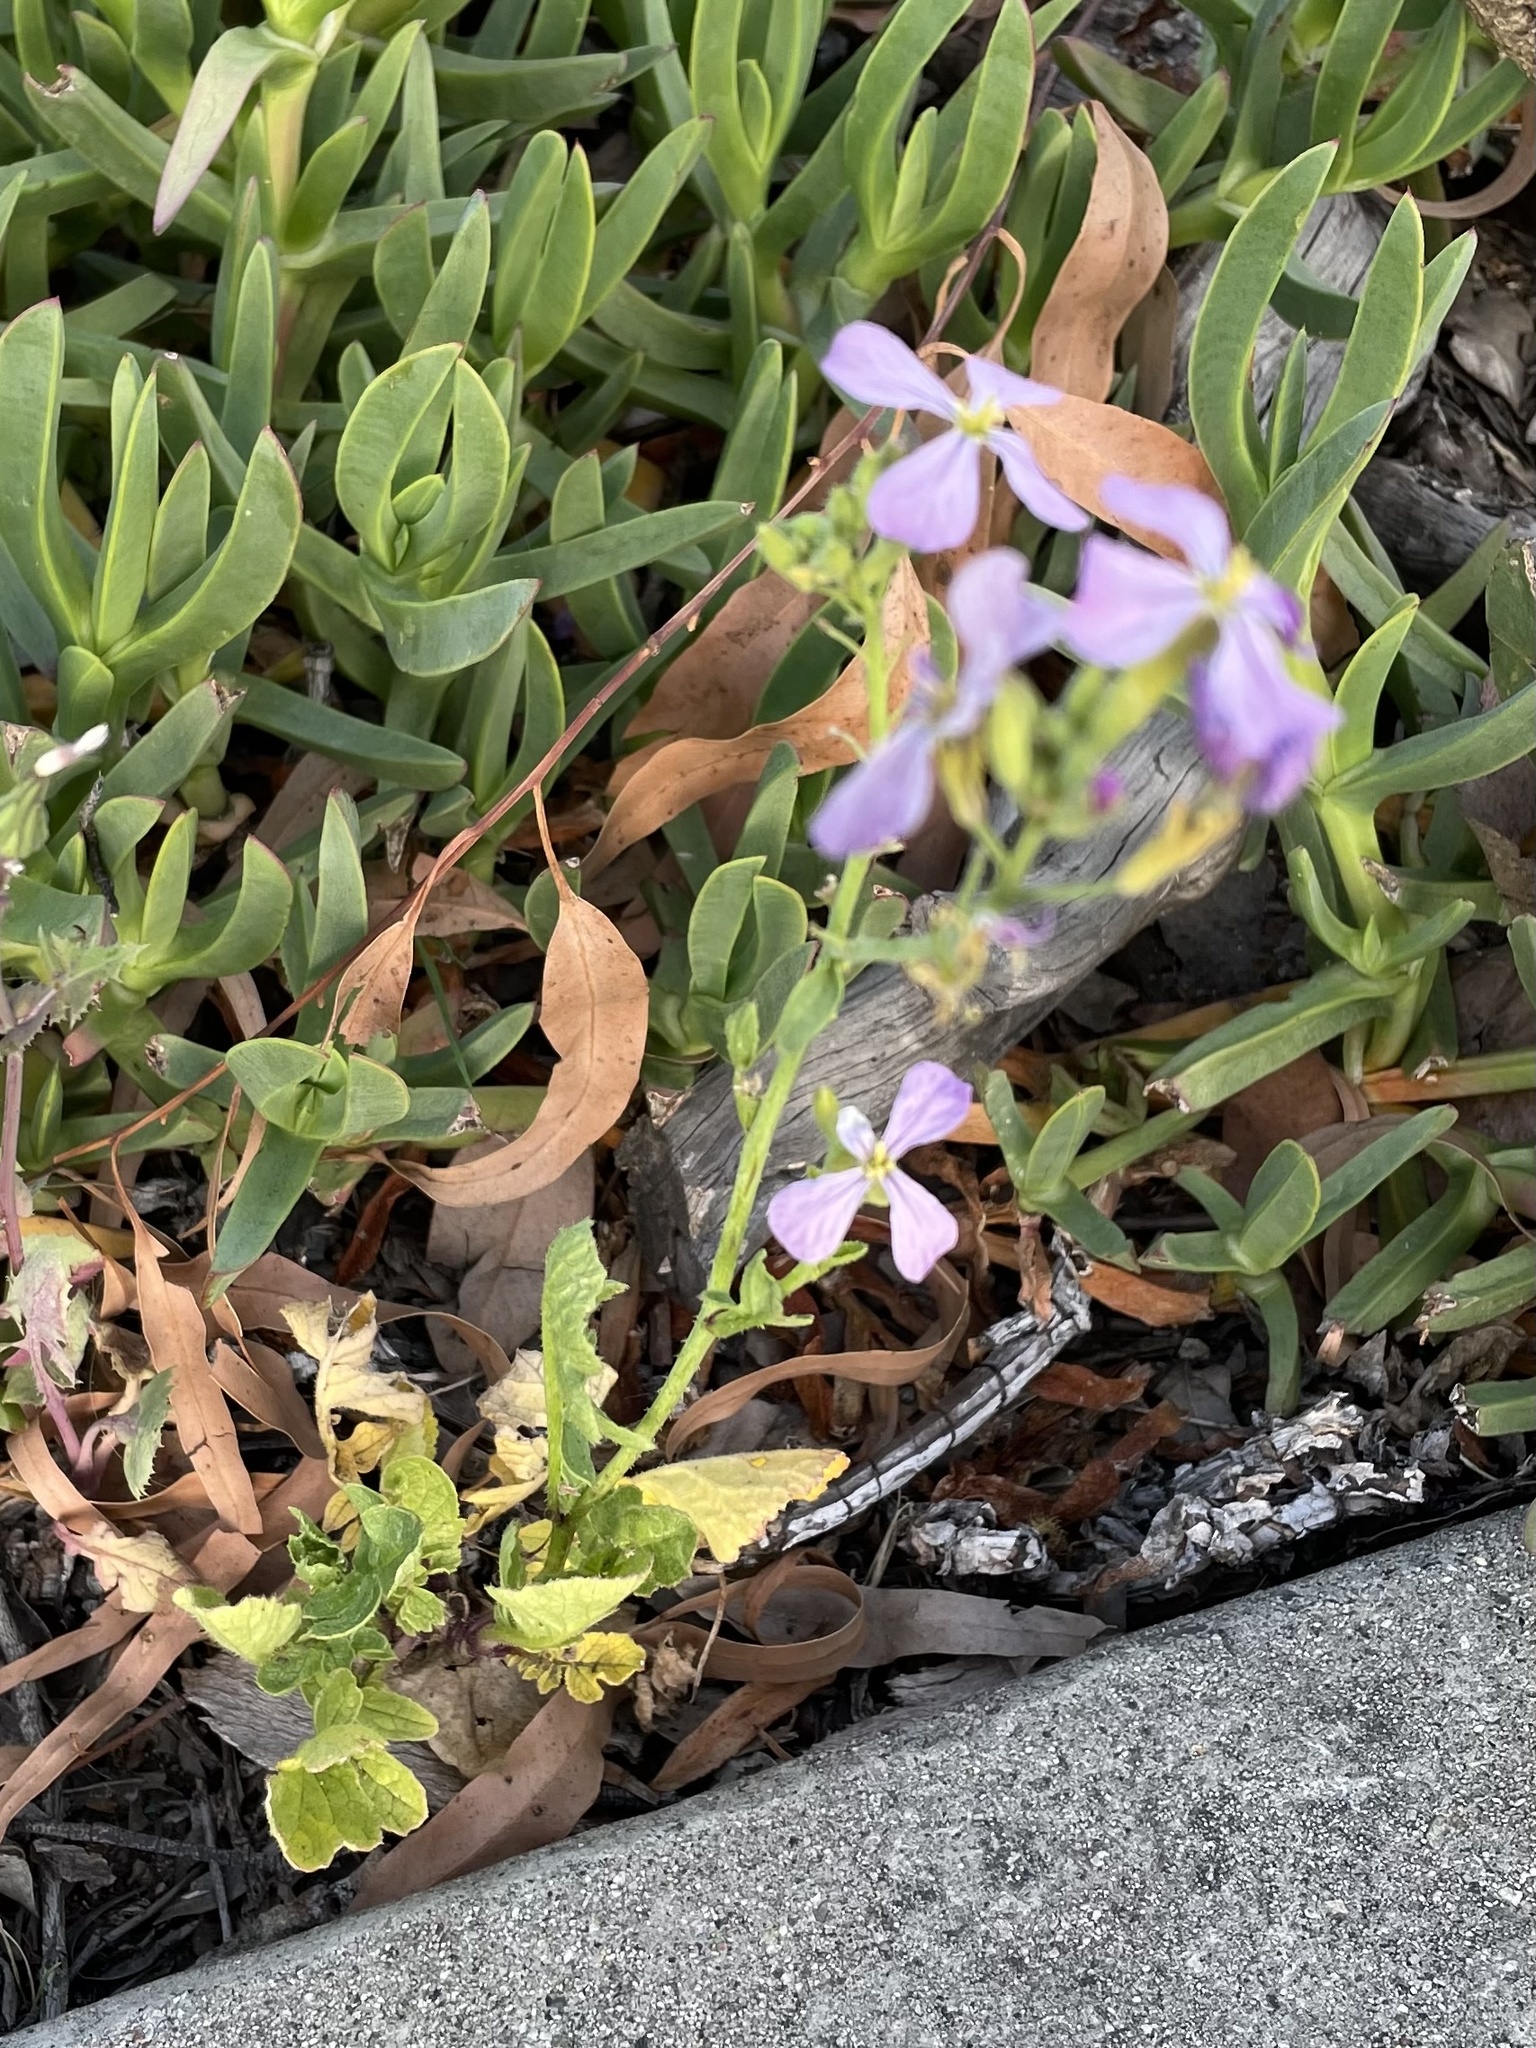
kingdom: Plantae
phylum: Tracheophyta
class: Magnoliopsida
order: Brassicales
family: Brassicaceae
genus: Raphanus
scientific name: Raphanus sativus
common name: Cultivated radish
